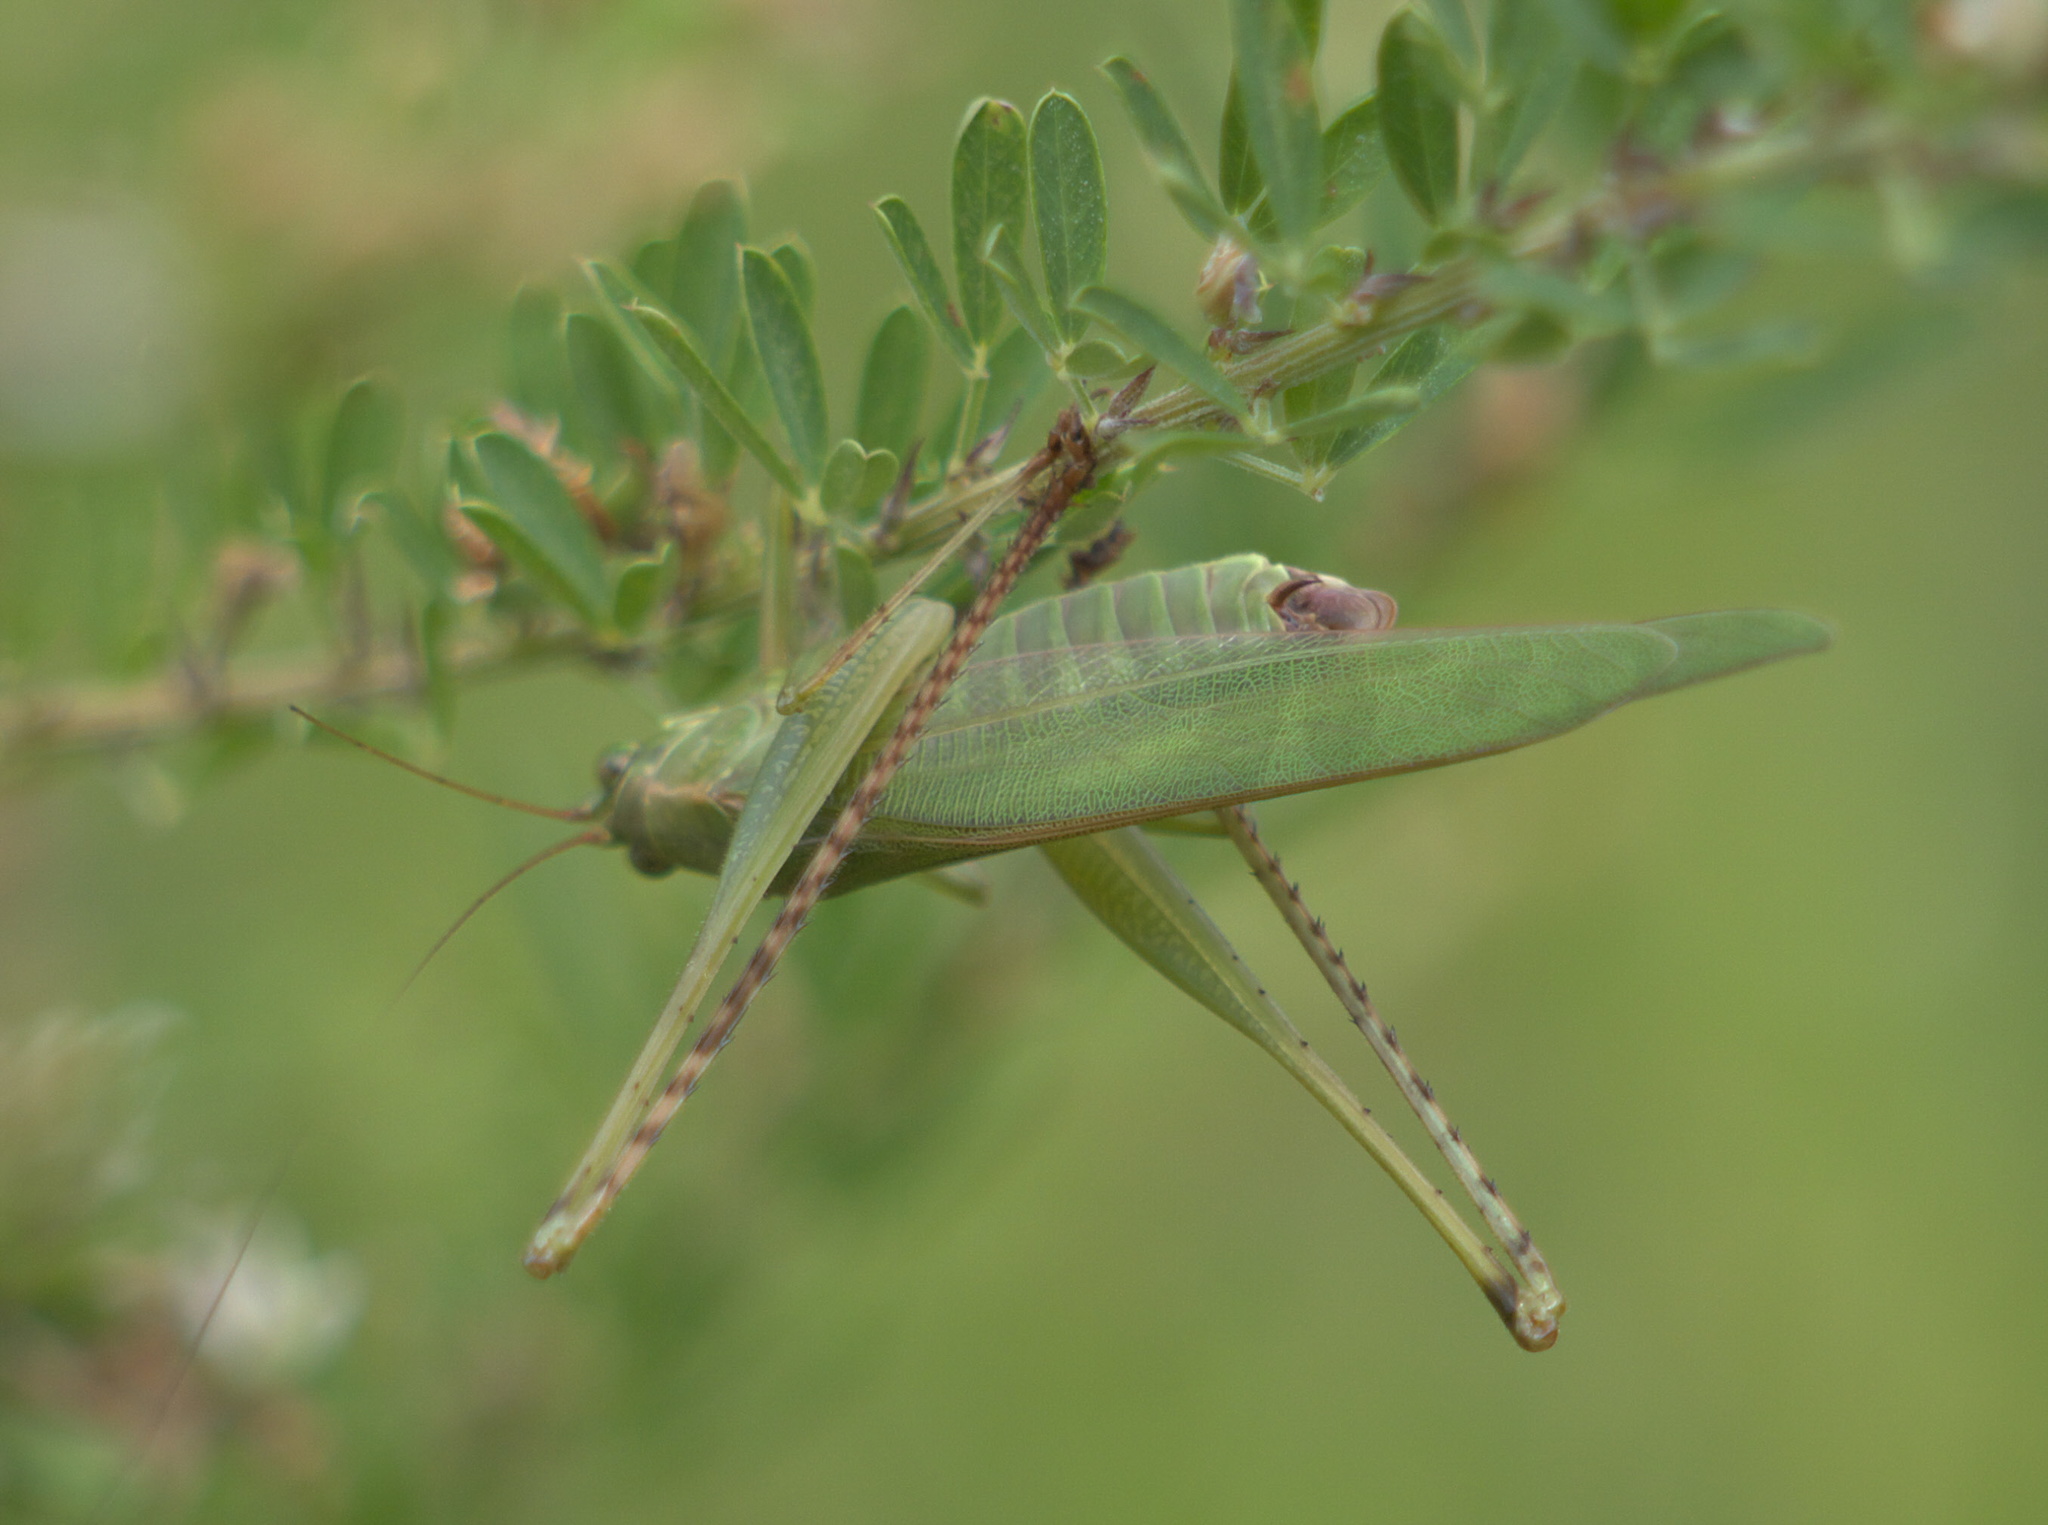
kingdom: Animalia
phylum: Arthropoda
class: Insecta
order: Orthoptera
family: Tettigoniidae
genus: Scudderia
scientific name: Scudderia furcata
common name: Fork-tailed bush katydid
